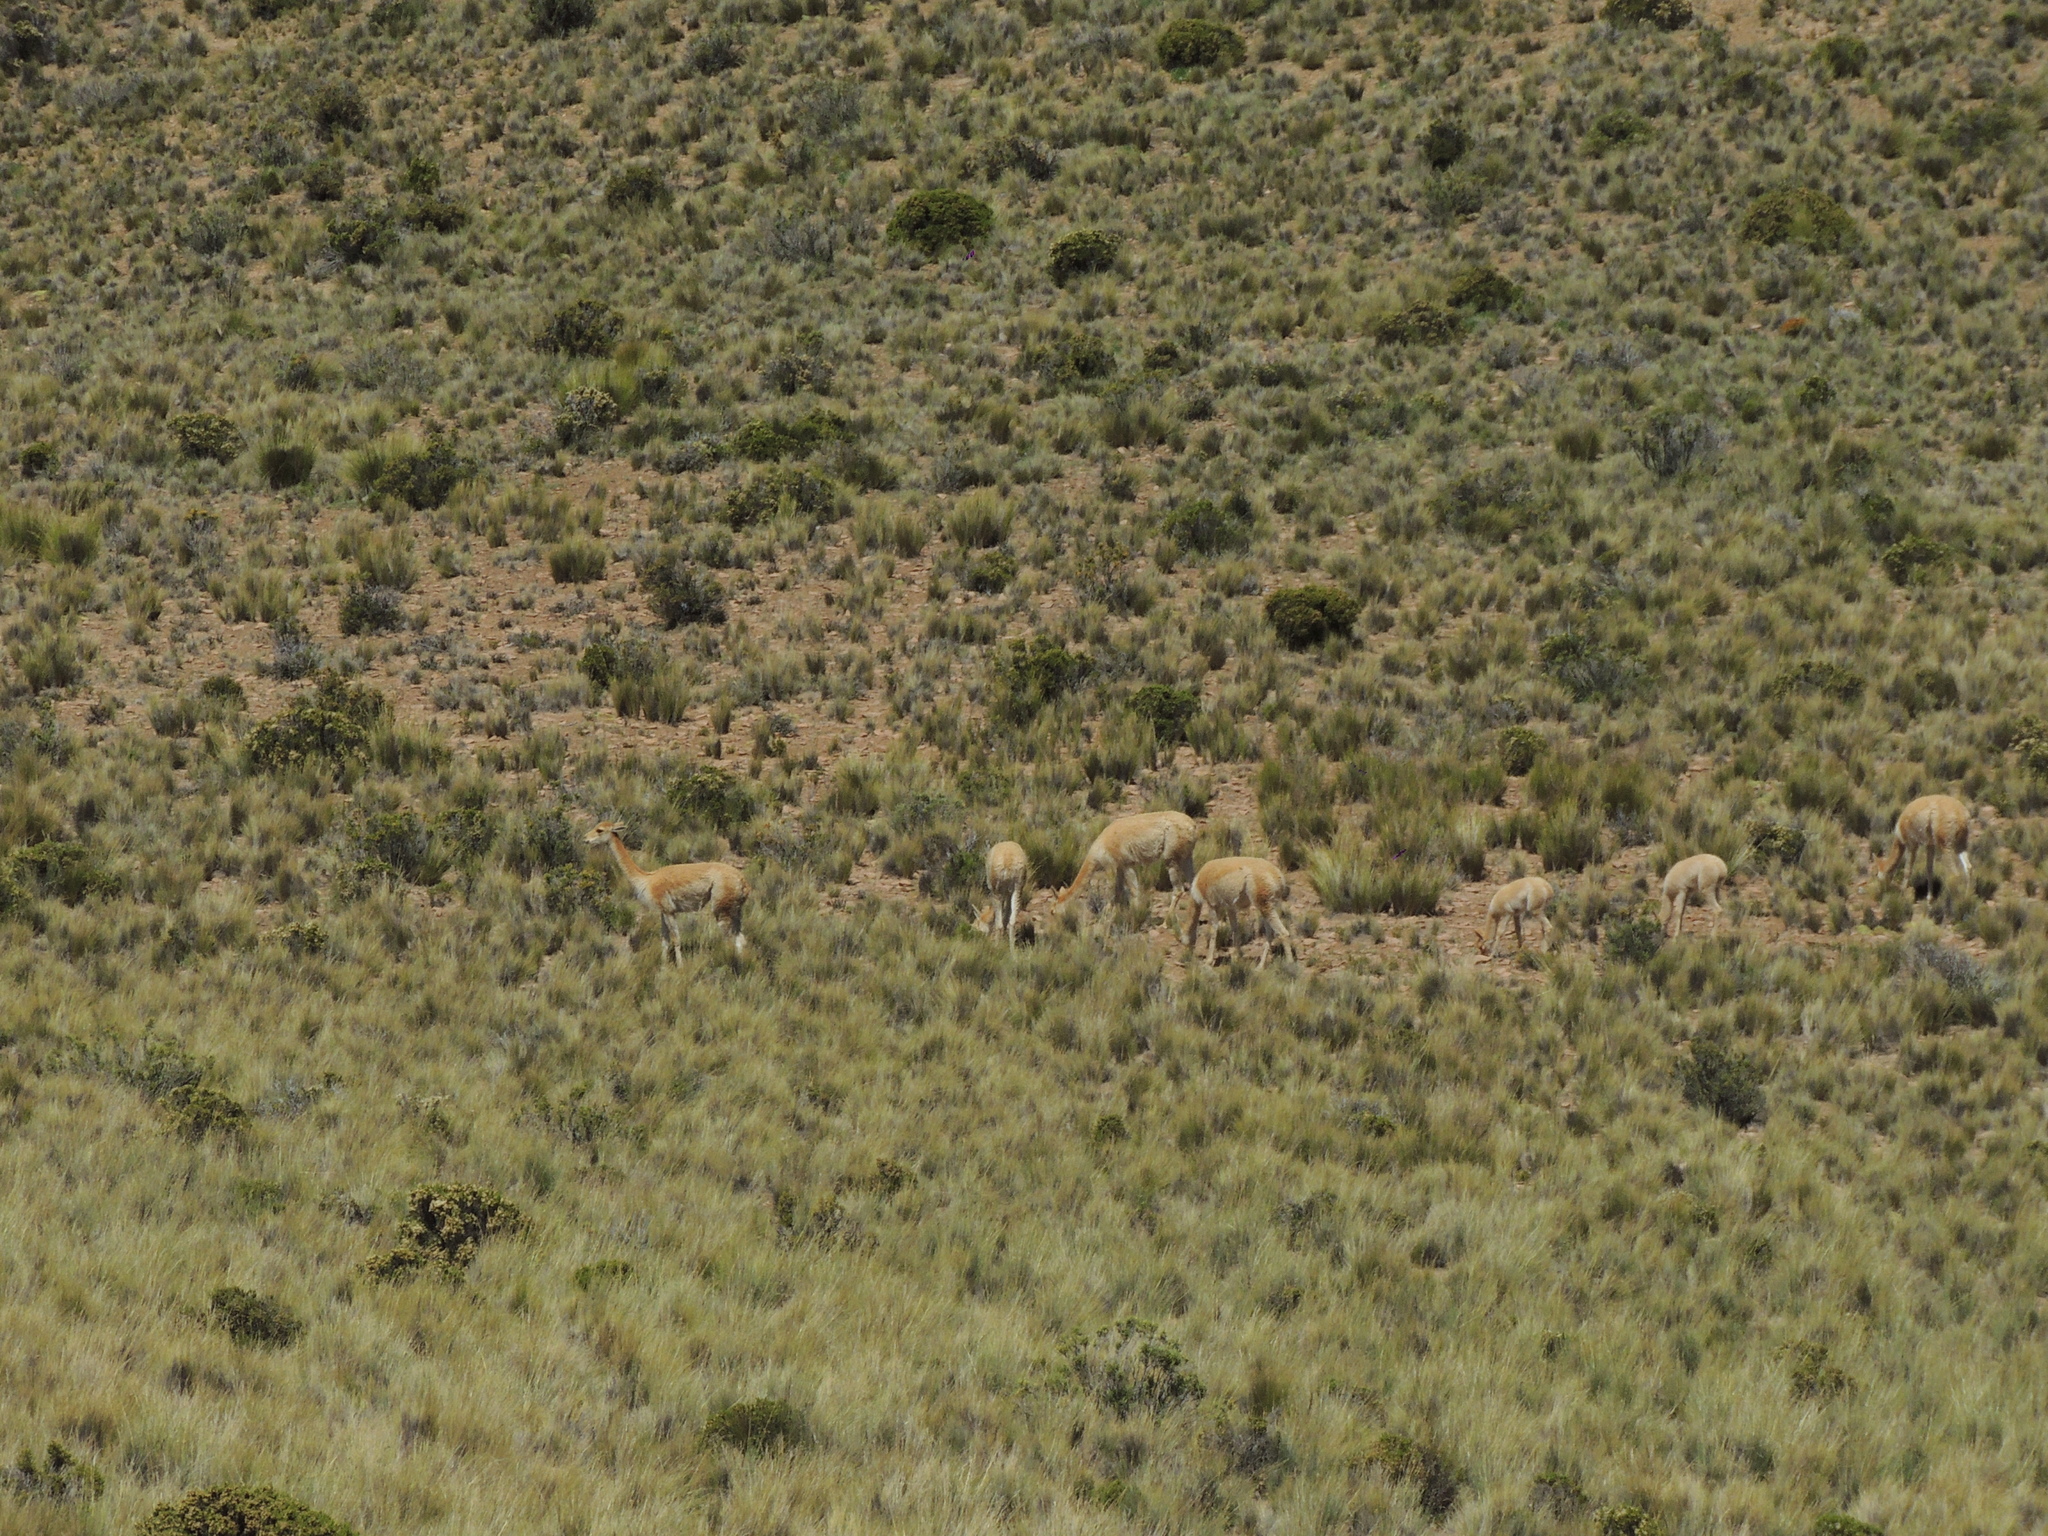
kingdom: Animalia
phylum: Chordata
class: Mammalia
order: Artiodactyla
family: Camelidae
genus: Vicugna
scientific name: Vicugna vicugna
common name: Vicugna
